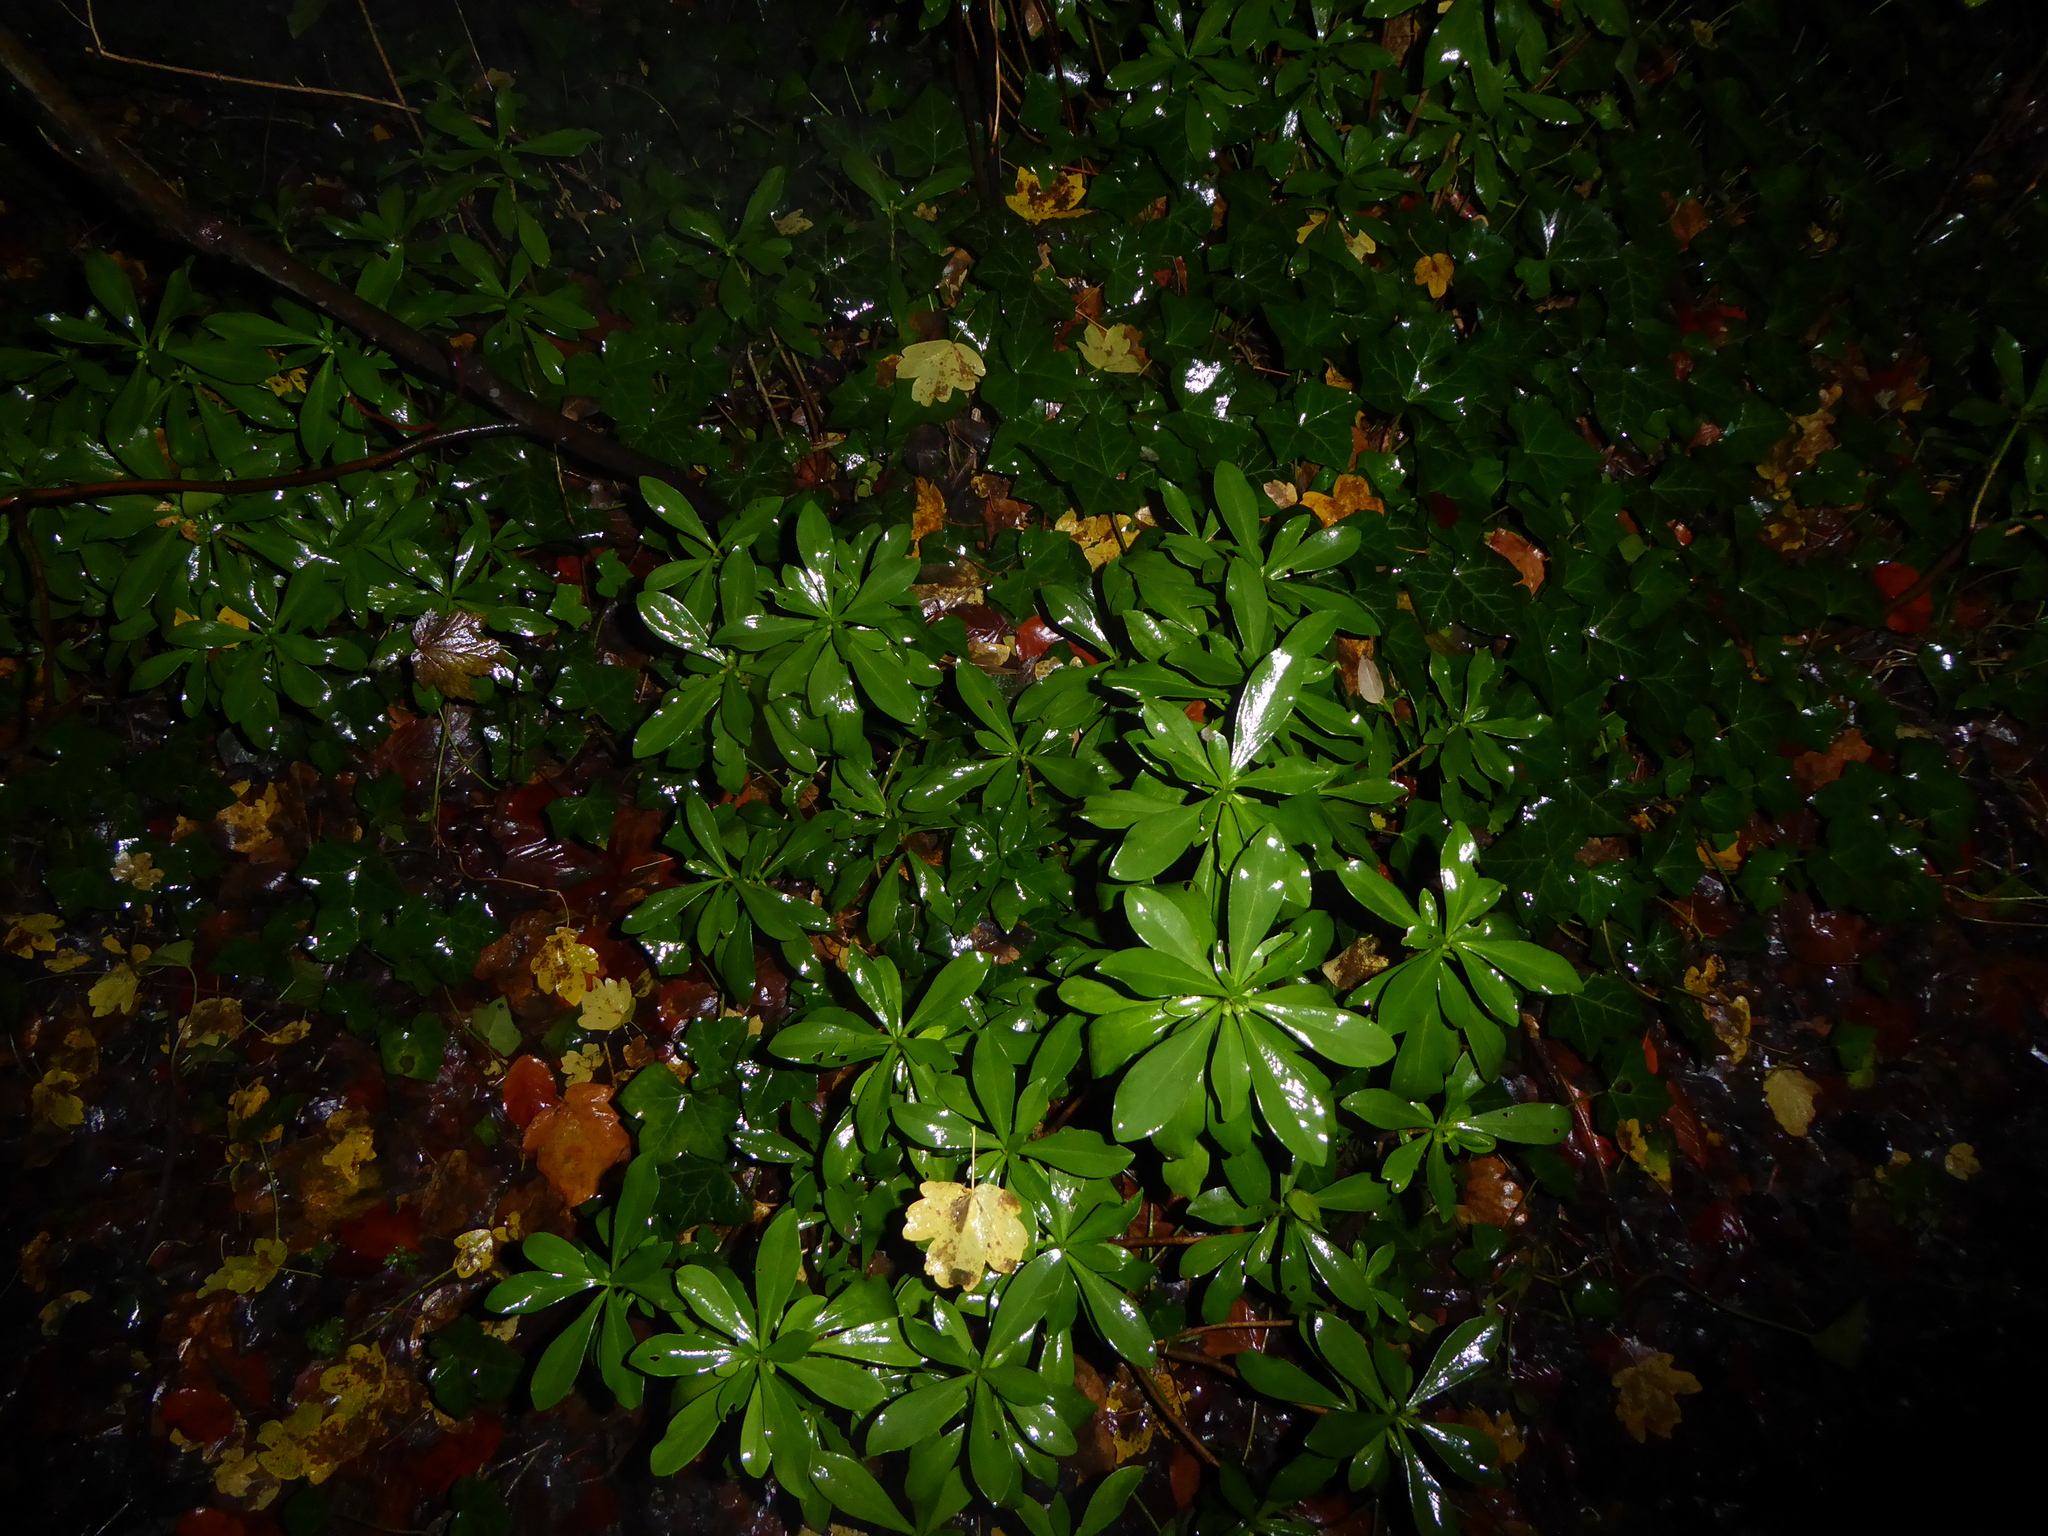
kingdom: Plantae
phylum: Tracheophyta
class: Magnoliopsida
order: Malvales
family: Thymelaeaceae
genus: Daphne
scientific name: Daphne laureola
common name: Spurge-laurel
